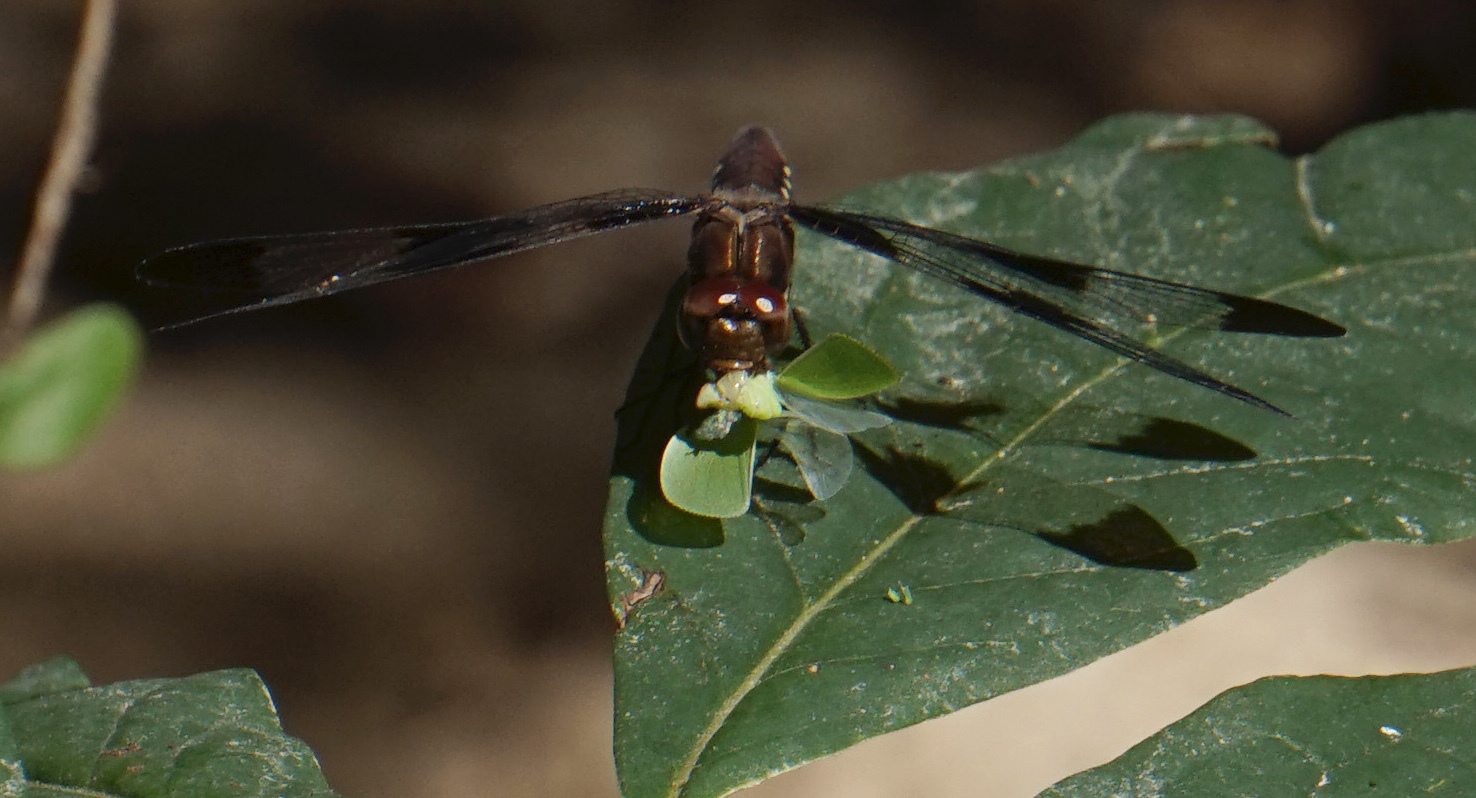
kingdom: Animalia
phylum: Arthropoda
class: Insecta
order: Odonata
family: Libellulidae
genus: Plathemis
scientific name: Plathemis lydia
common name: Common whitetail
